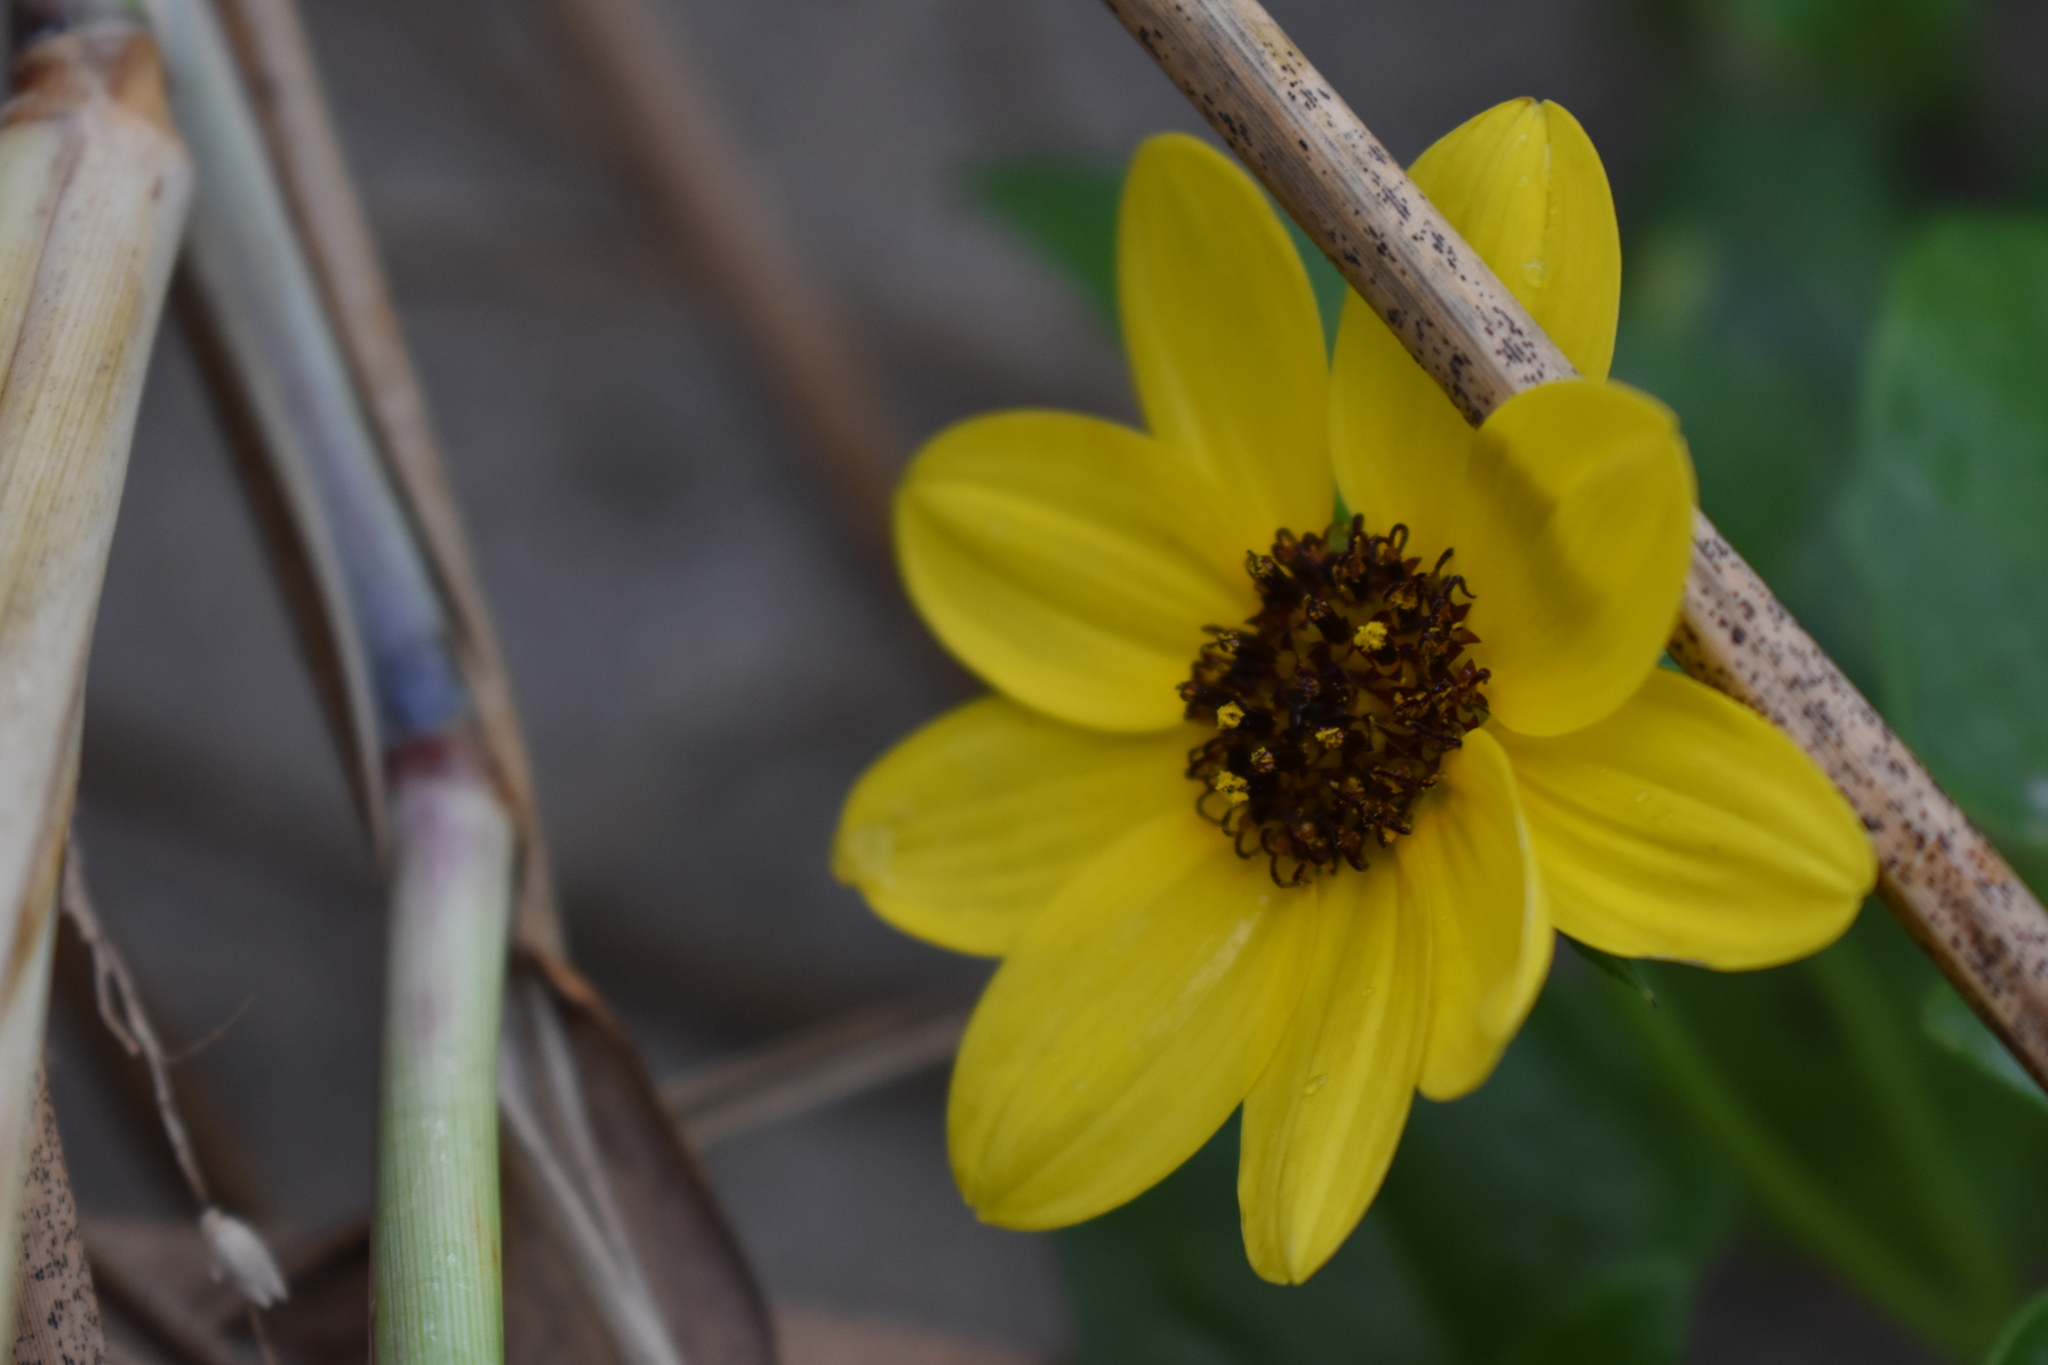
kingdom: Plantae
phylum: Tracheophyta
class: Magnoliopsida
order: Asterales
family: Asteraceae
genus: Helianthus
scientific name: Helianthus debilis
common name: Weak sunflower
